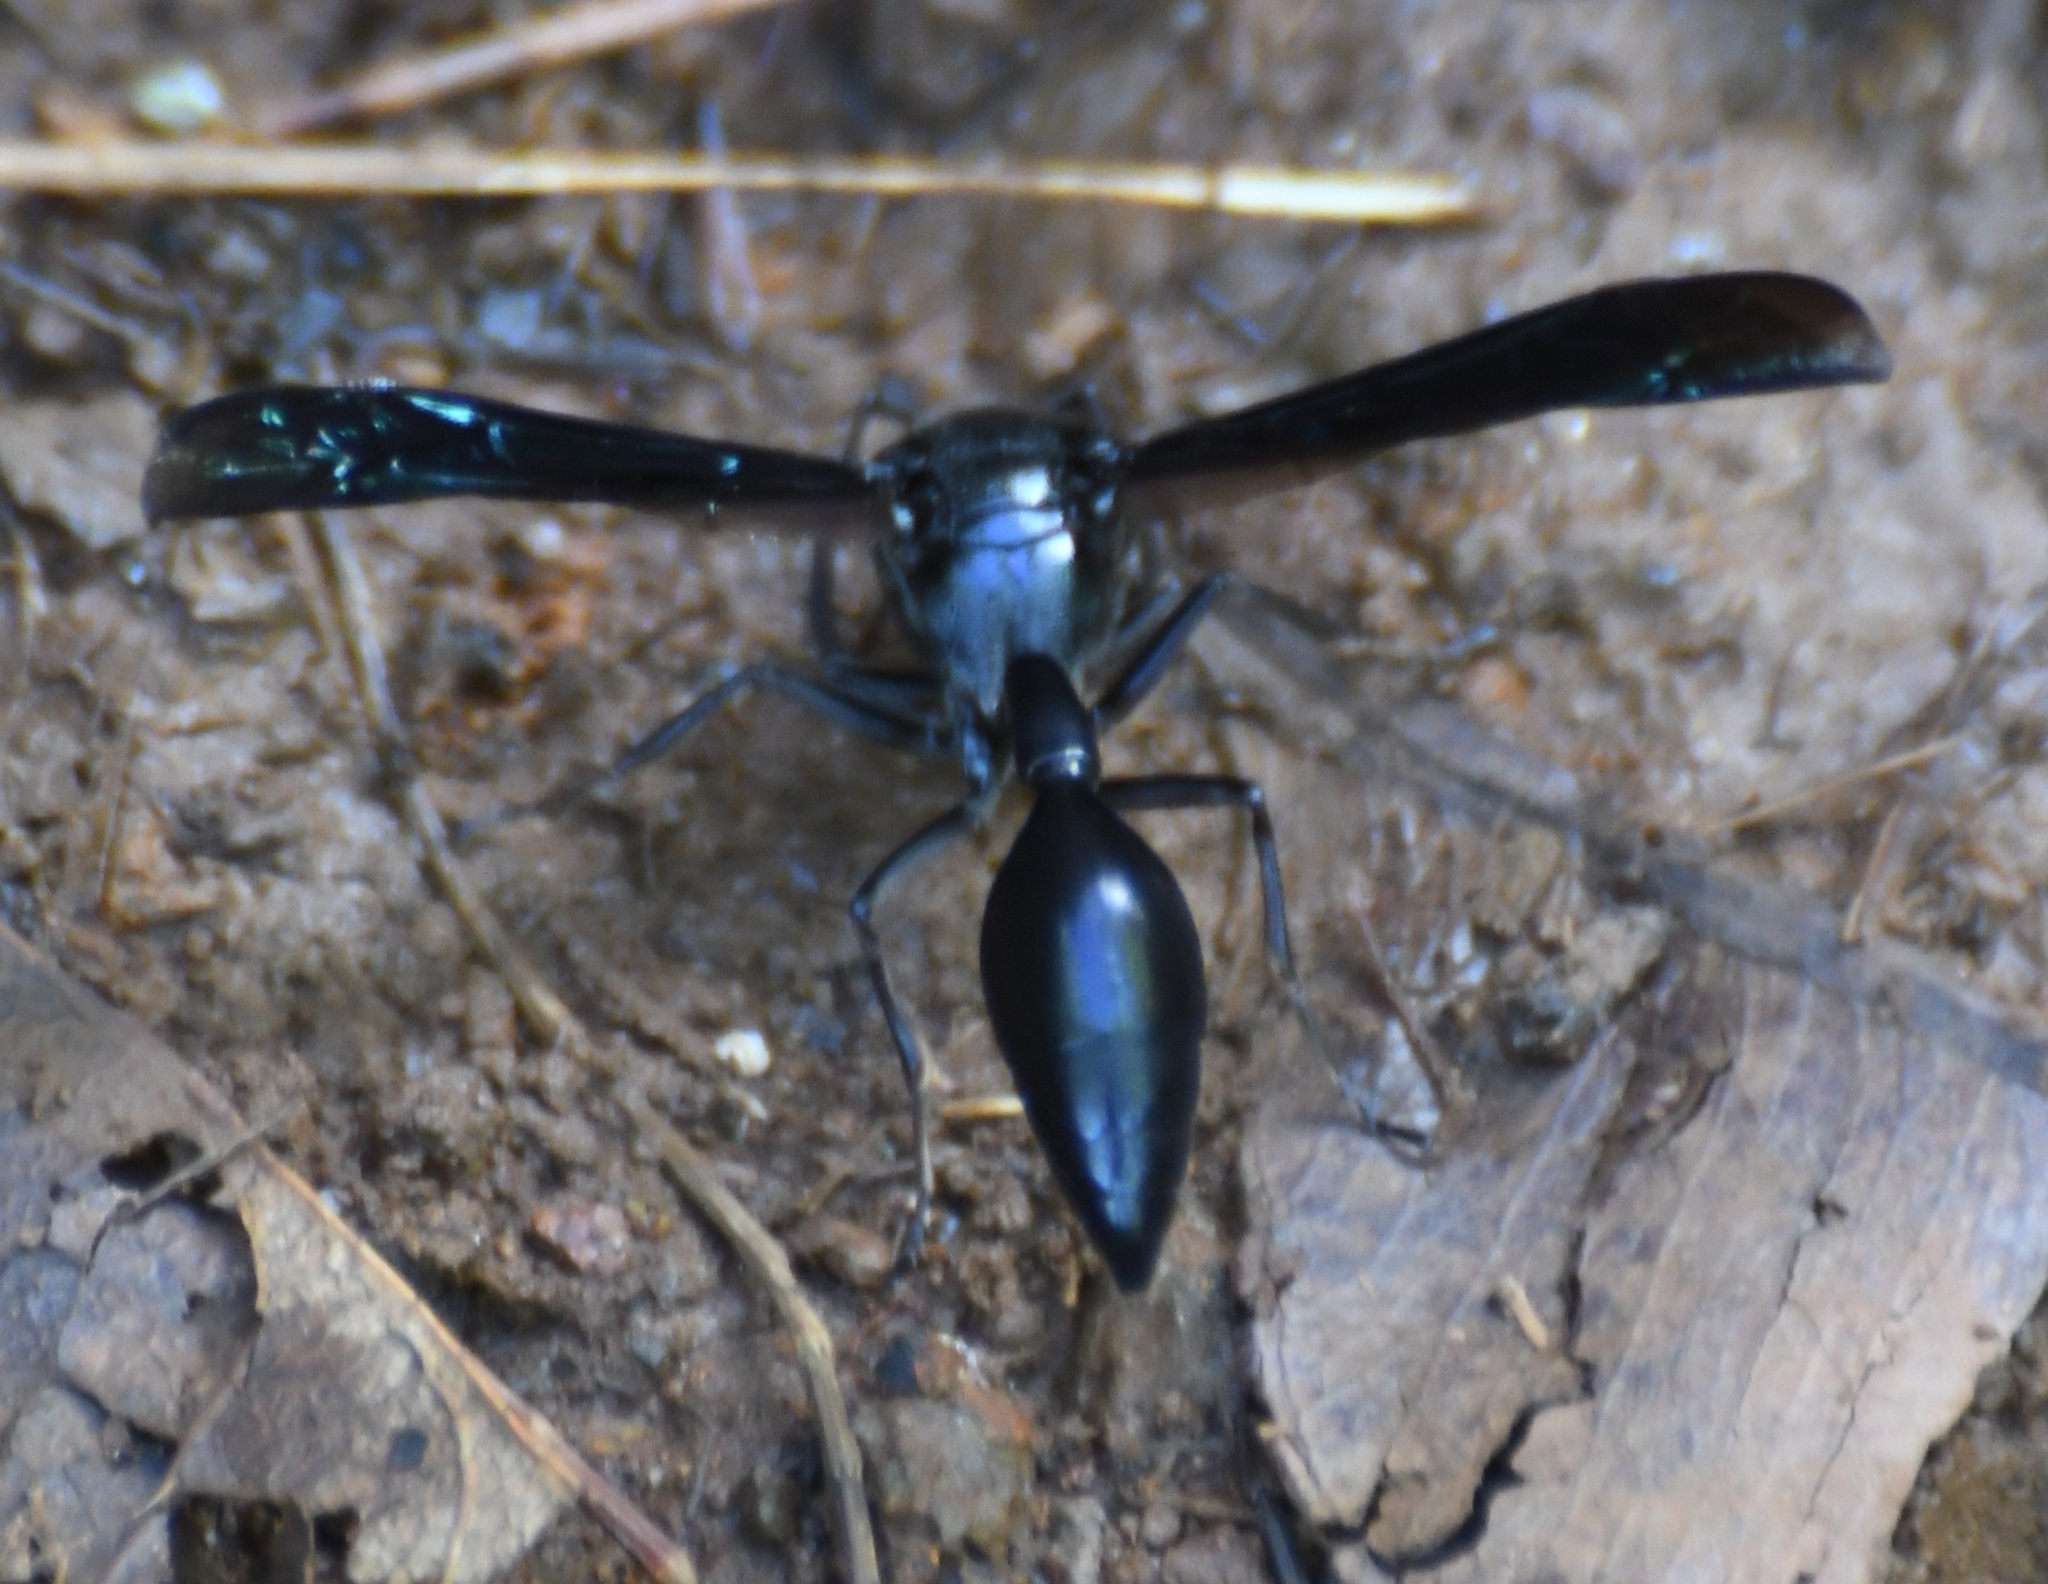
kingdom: Animalia
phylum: Arthropoda
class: Insecta
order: Hymenoptera
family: Eumenidae
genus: Phimenes
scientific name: Phimenes curvatus
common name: Black delta vespid wasp
